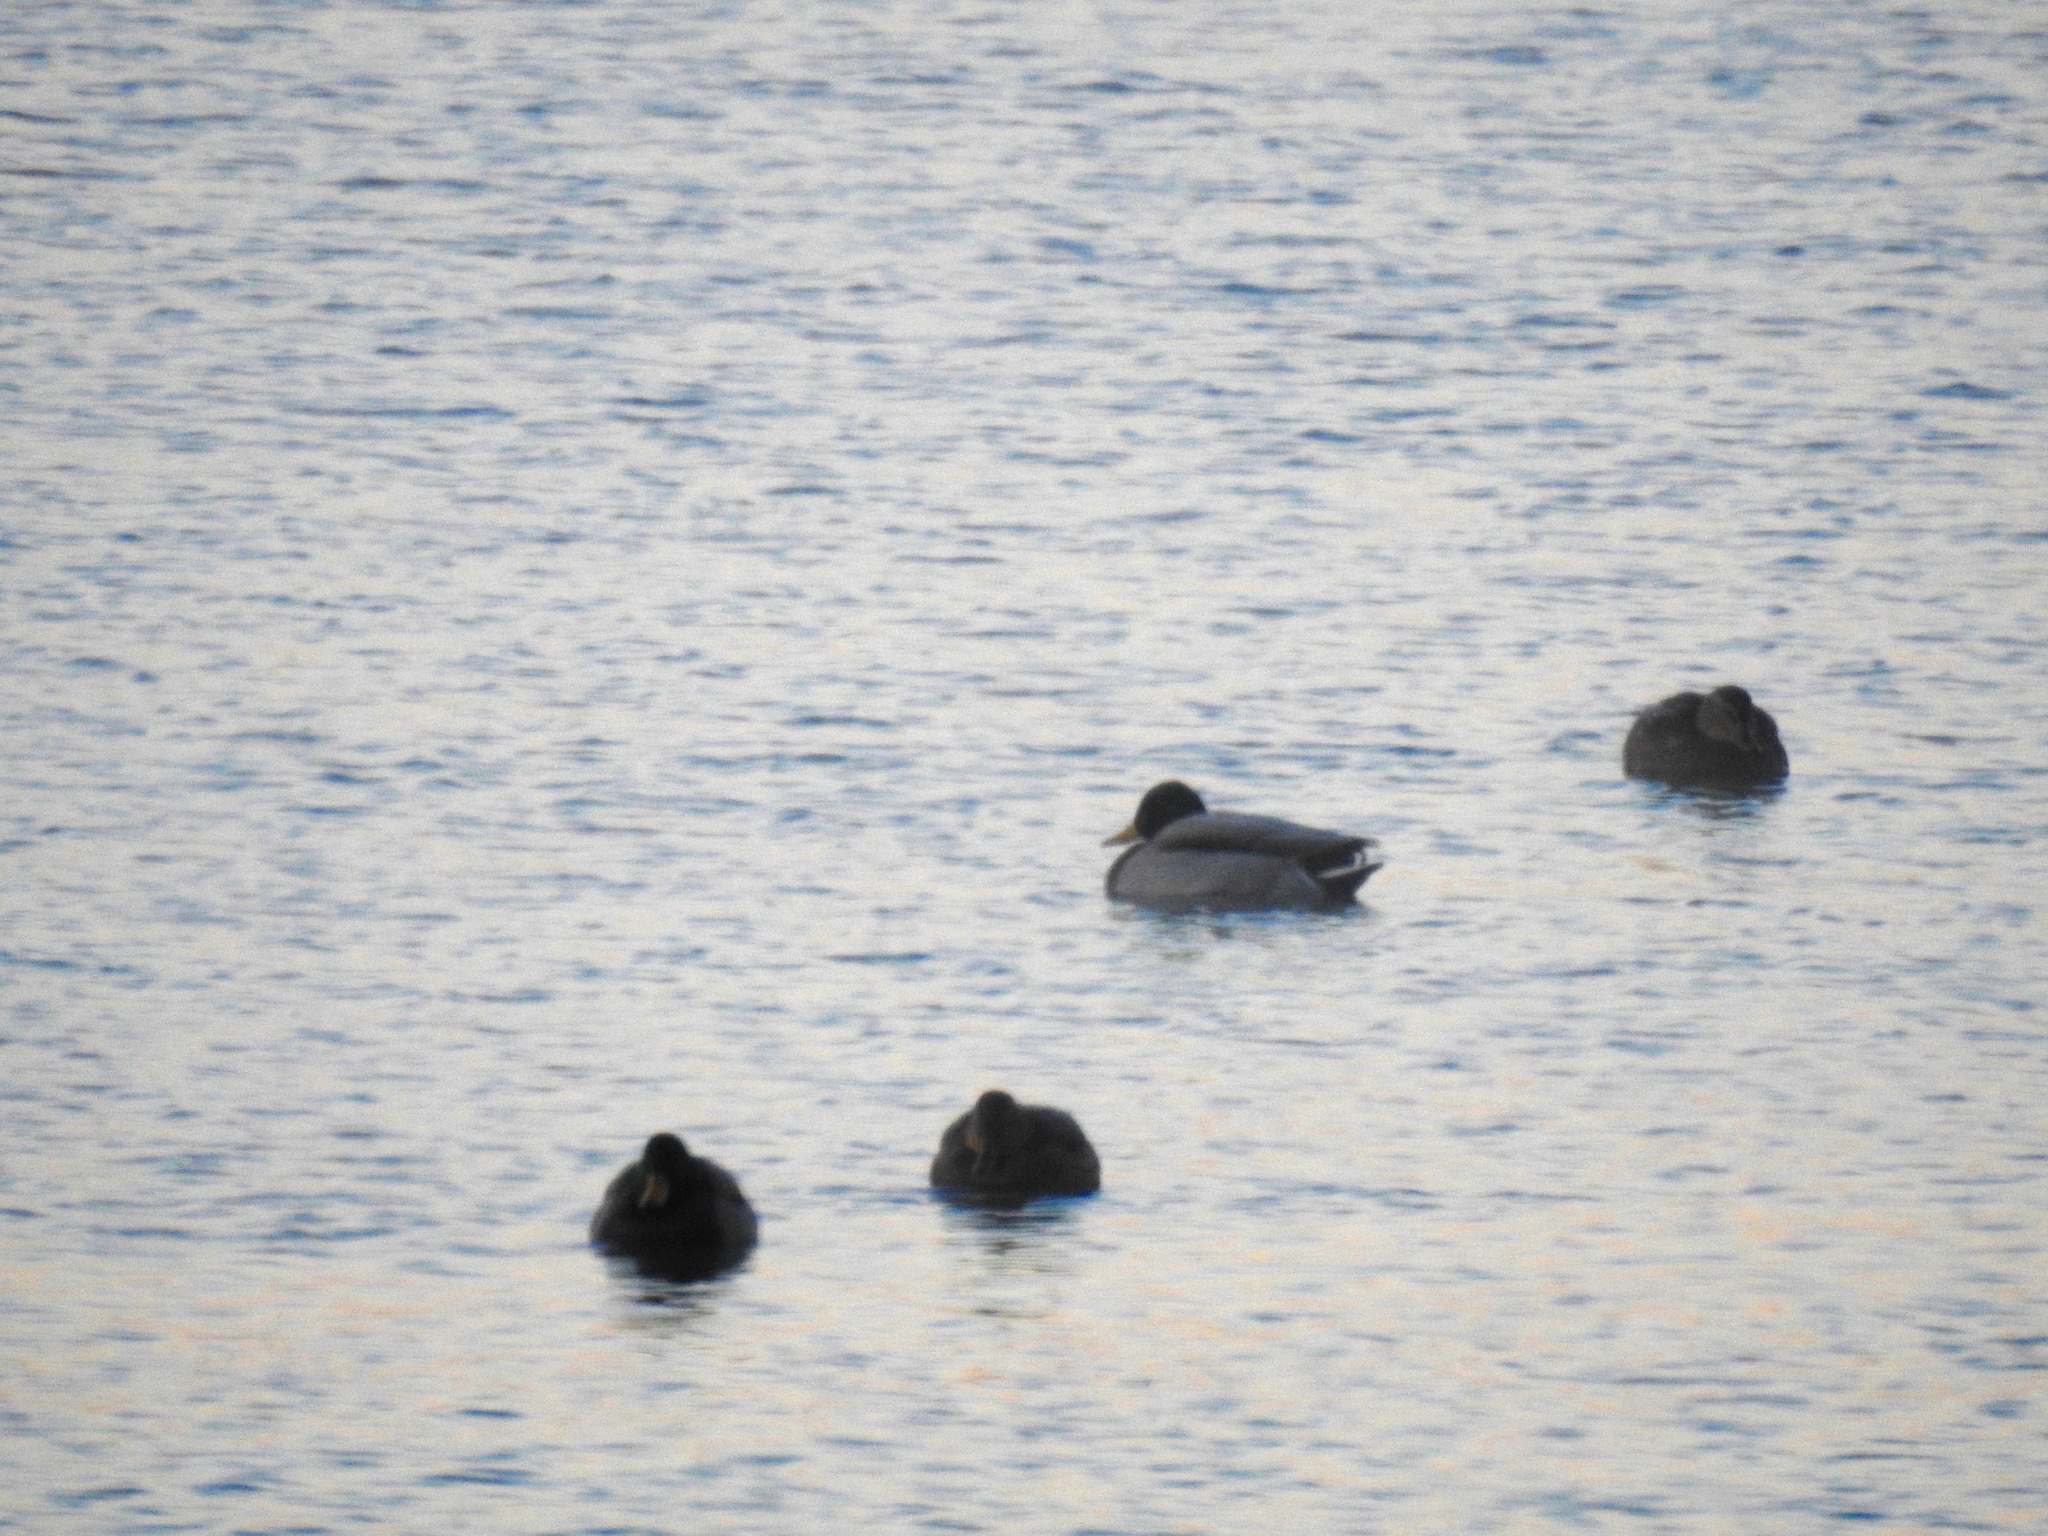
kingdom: Animalia
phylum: Chordata
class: Aves
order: Anseriformes
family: Anatidae
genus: Anas
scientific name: Anas platyrhynchos
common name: Mallard
